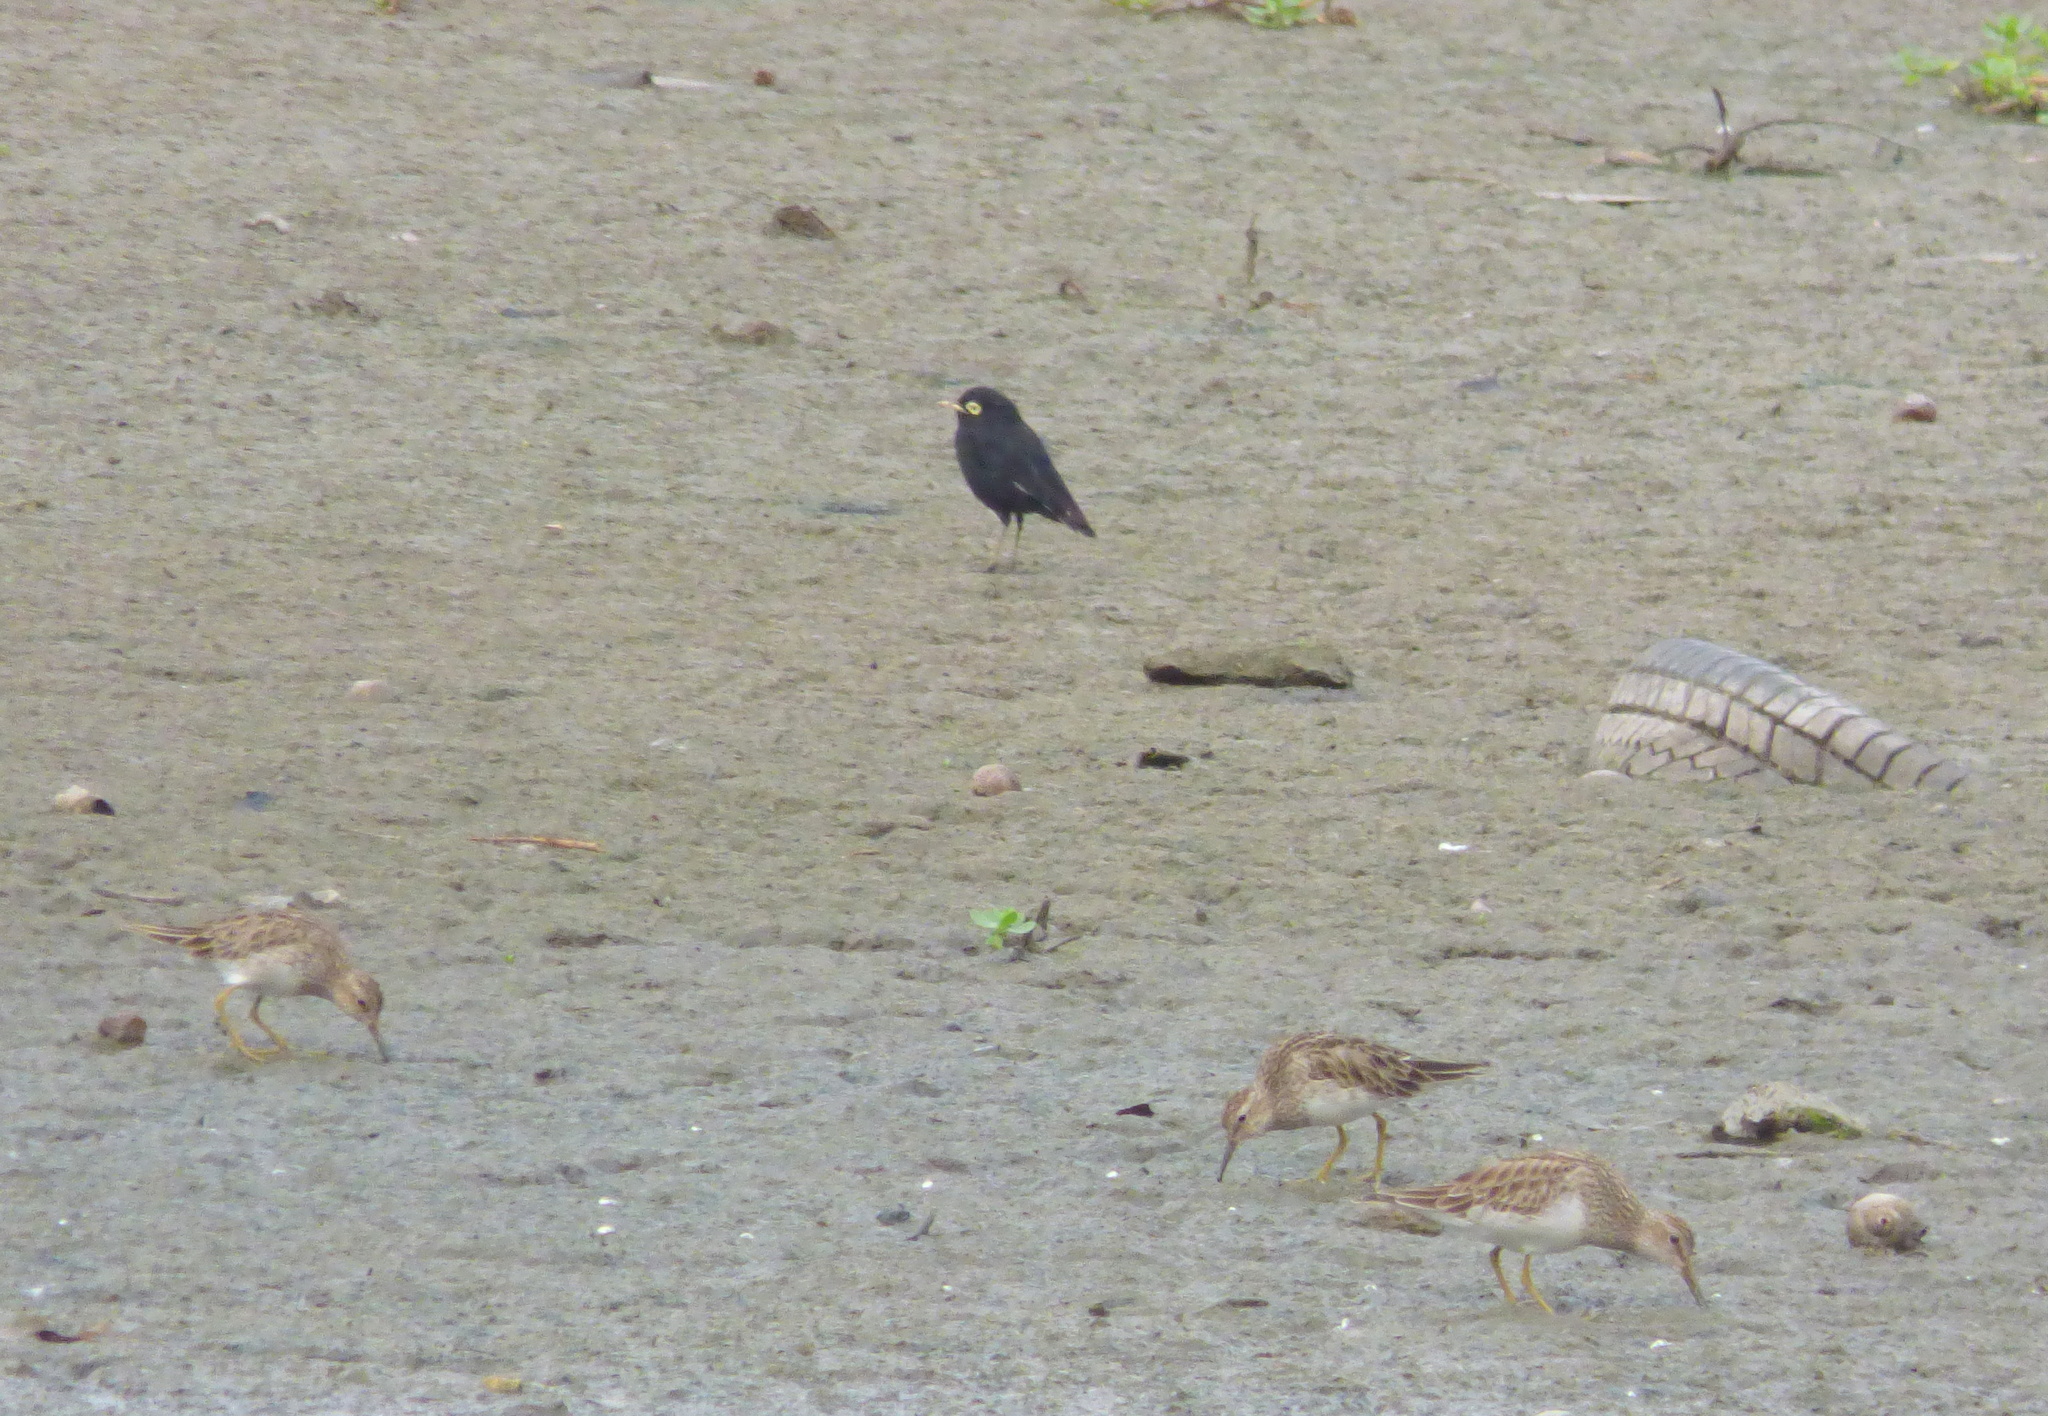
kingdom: Animalia
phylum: Chordata
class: Aves
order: Passeriformes
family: Tyrannidae
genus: Hymenops
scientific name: Hymenops perspicillatus
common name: Spectacled tyrant
